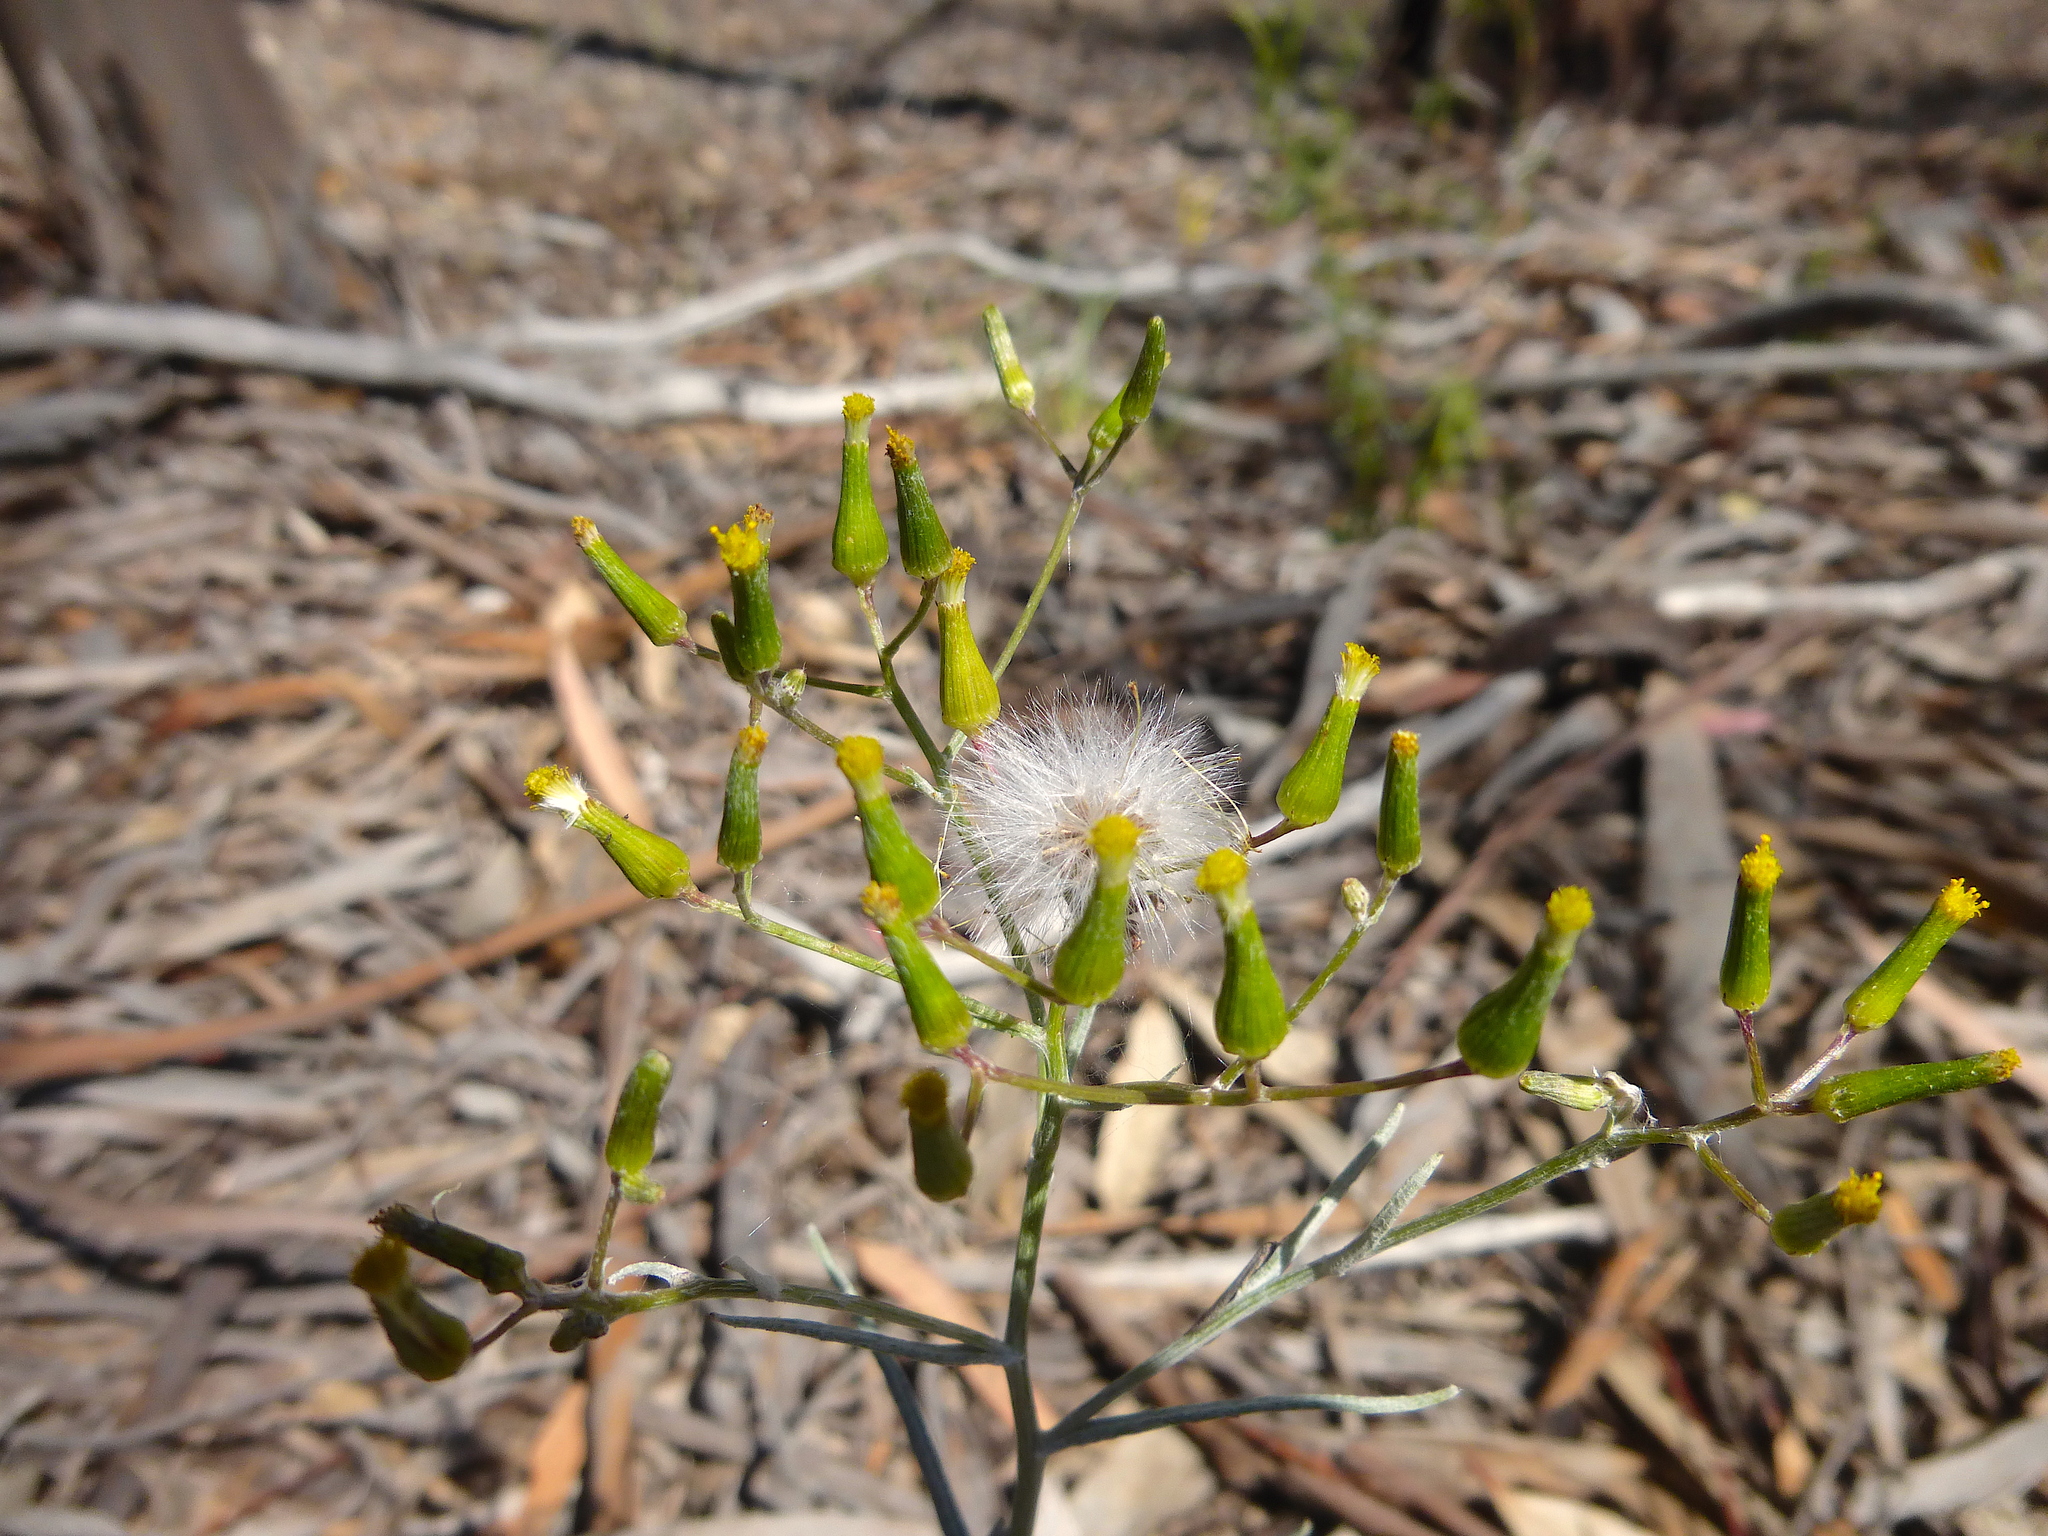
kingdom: Plantae
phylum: Tracheophyta
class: Magnoliopsida
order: Asterales
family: Asteraceae
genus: Senecio
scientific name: Senecio quadridentatus
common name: Cotton fireweed
